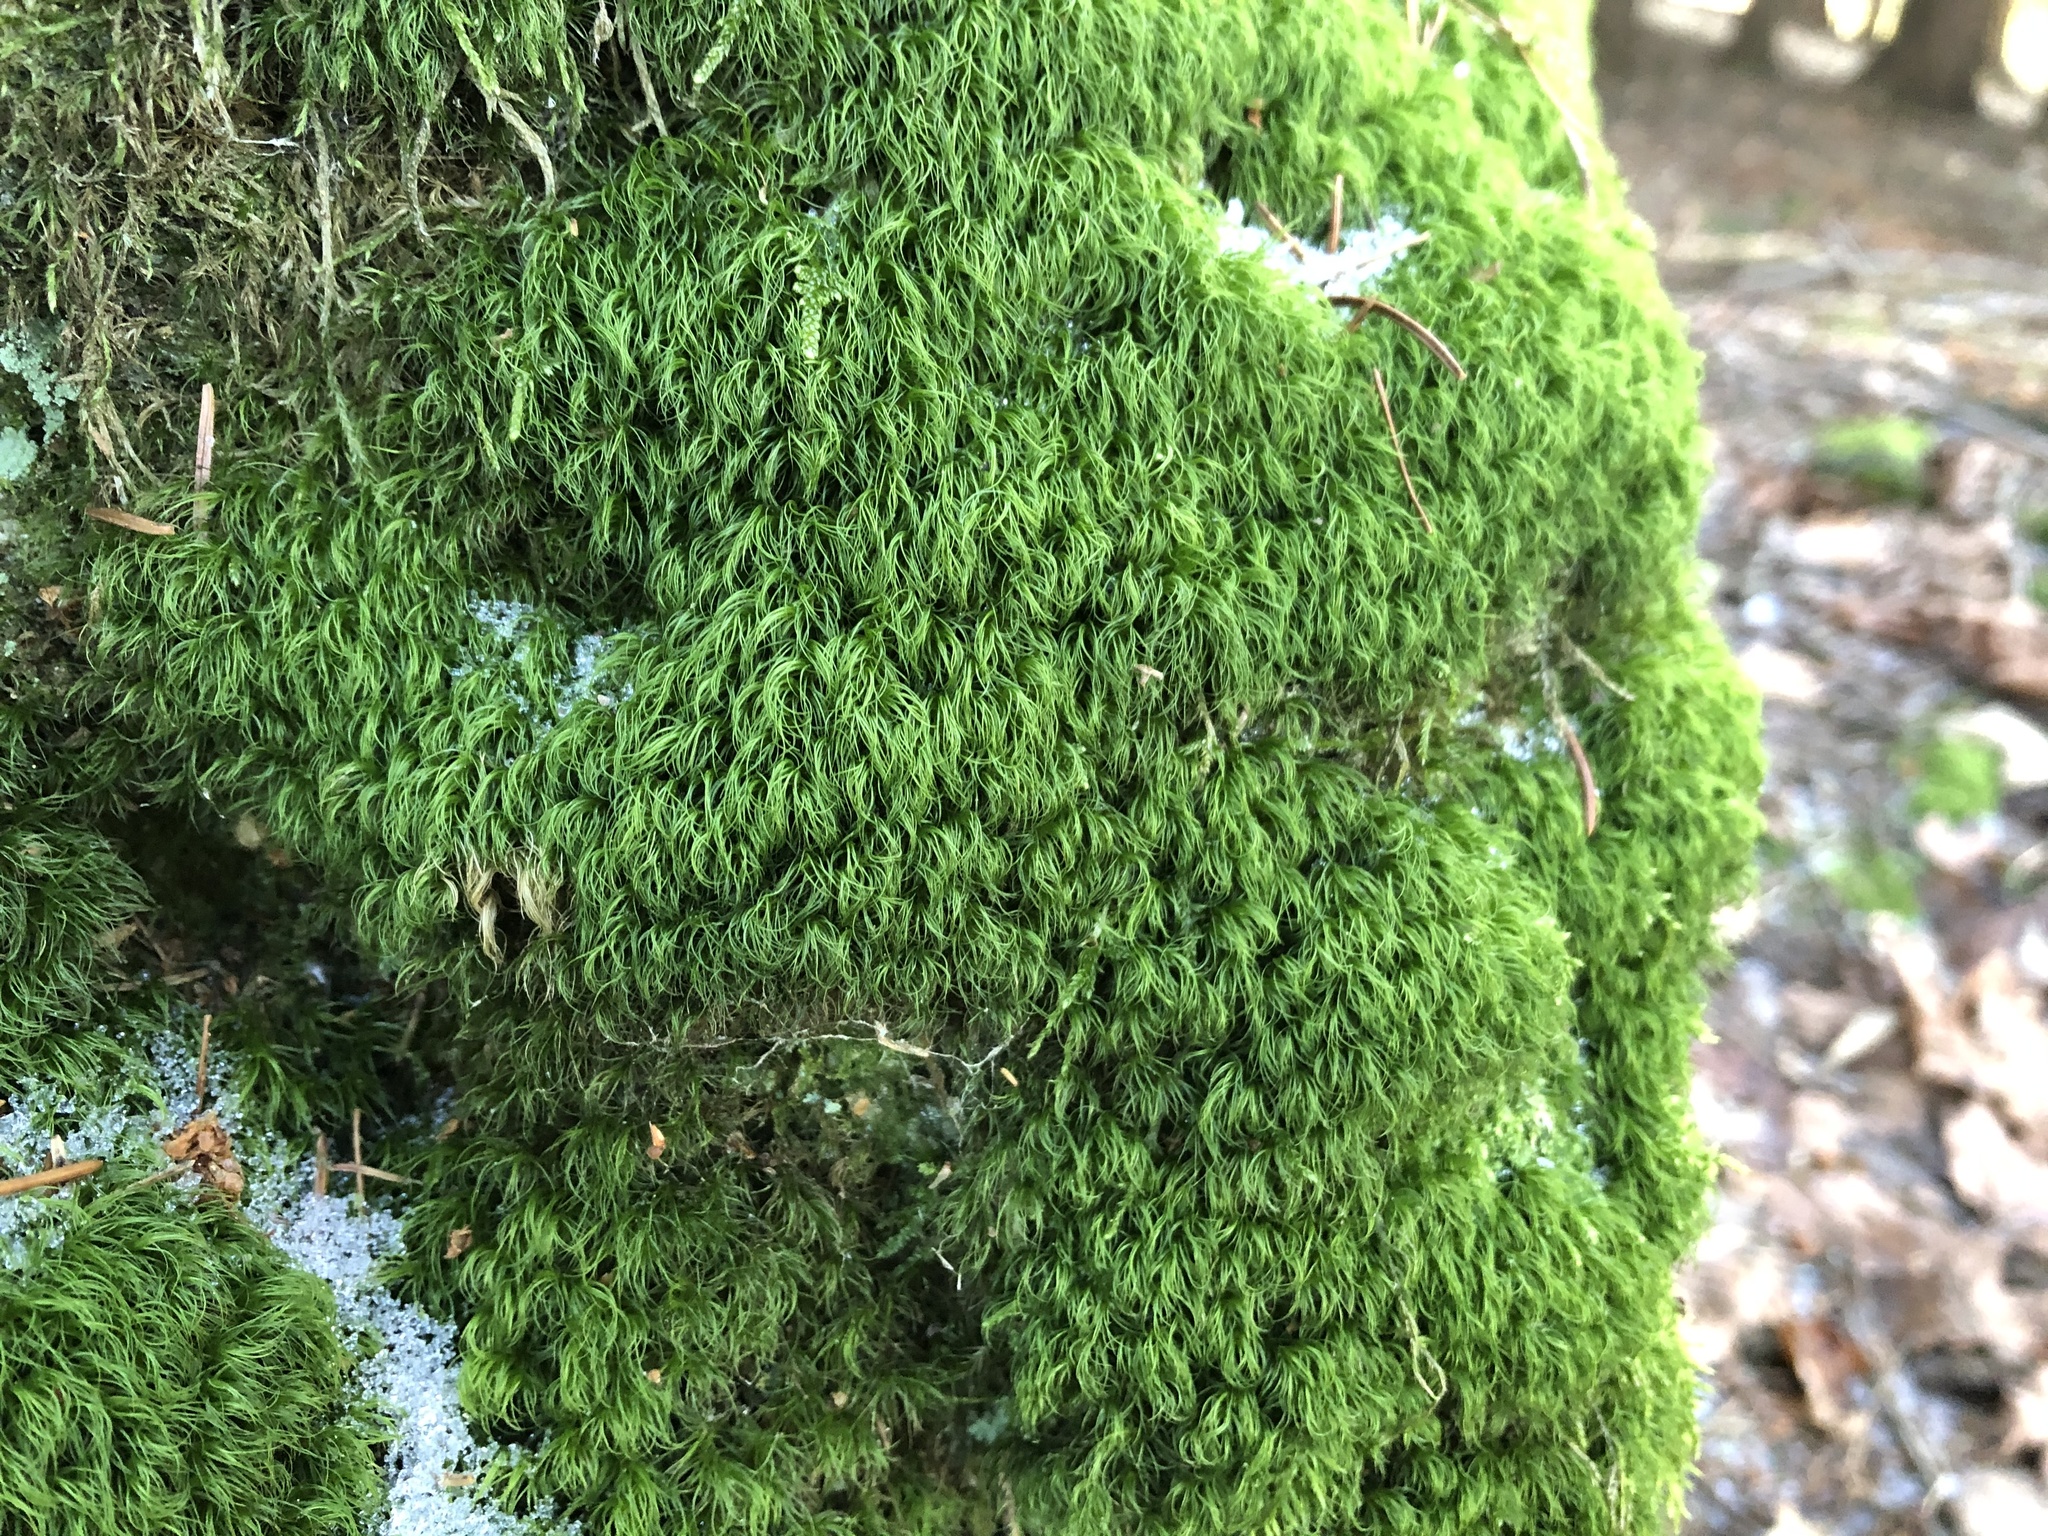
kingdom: Plantae
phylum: Bryophyta
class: Bryopsida
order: Dicranales
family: Dicranaceae
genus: Paraleucobryum
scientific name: Paraleucobryum longifolium
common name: Long-leaved fork moss
